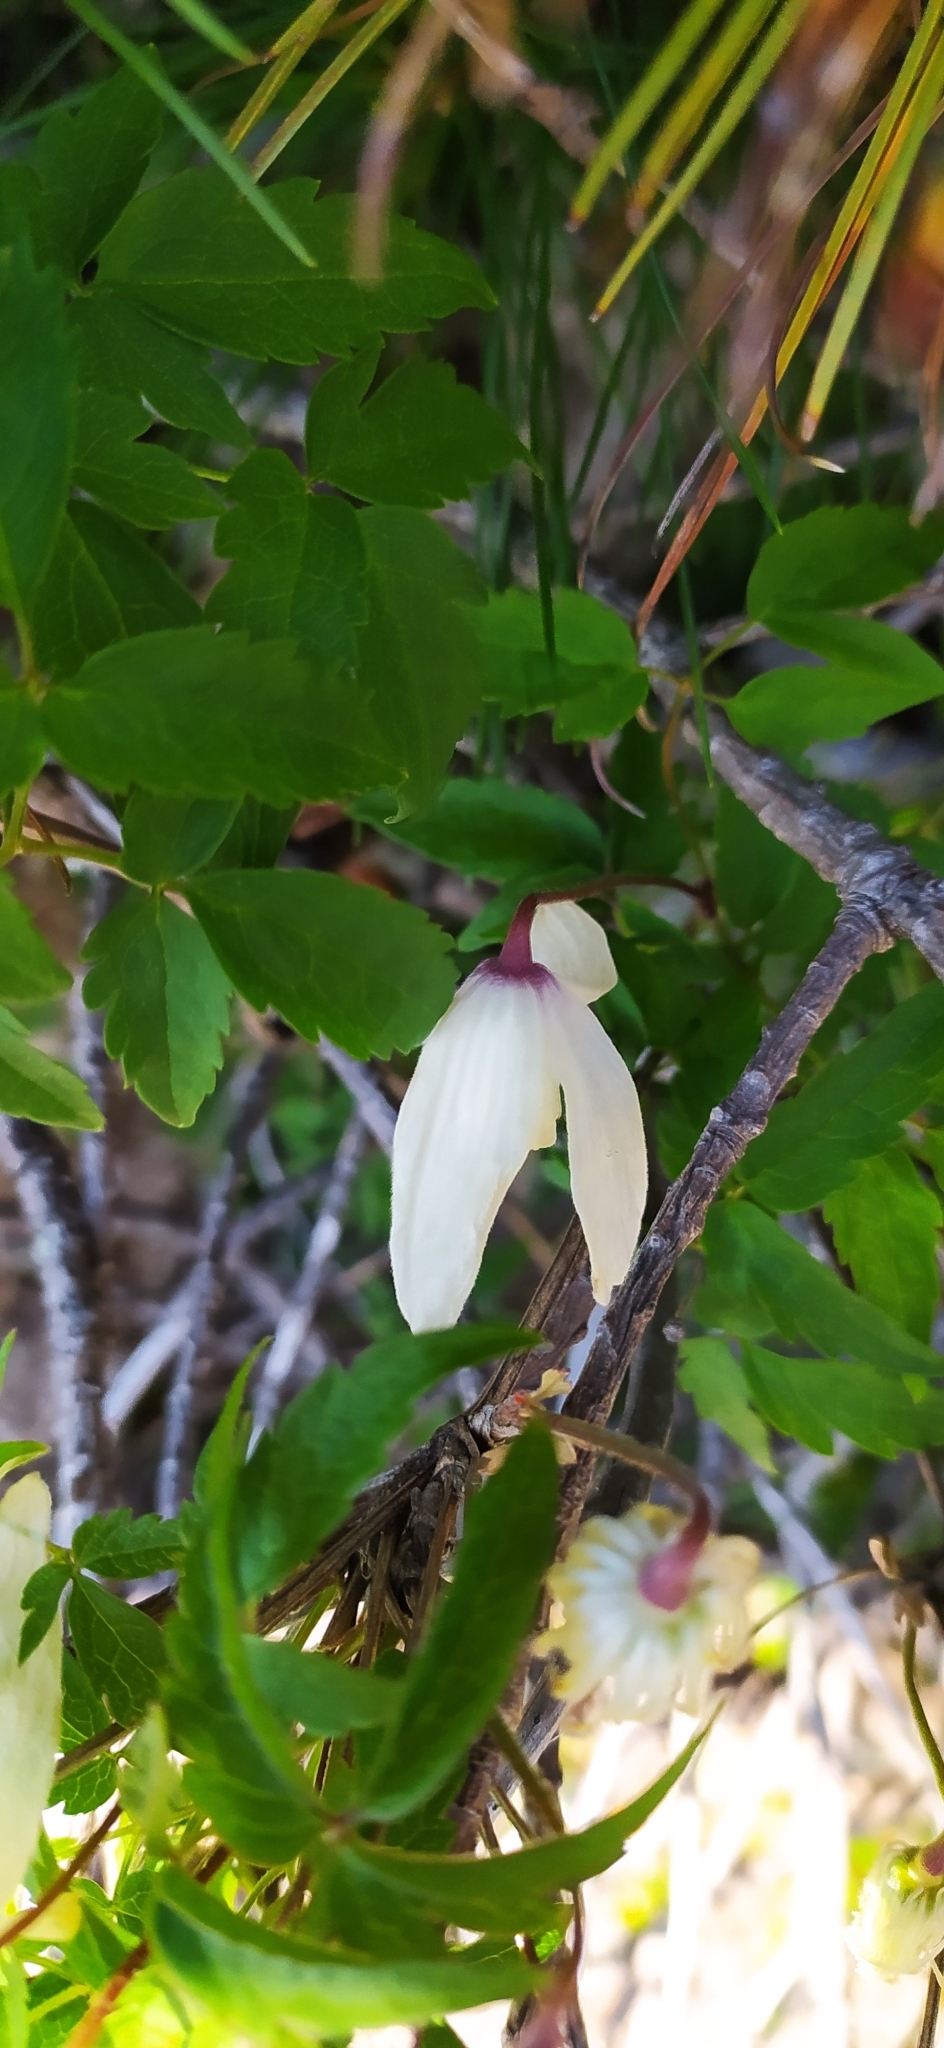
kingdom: Plantae
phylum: Tracheophyta
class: Magnoliopsida
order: Ranunculales
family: Ranunculaceae
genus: Clematis
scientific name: Clematis sibirica
